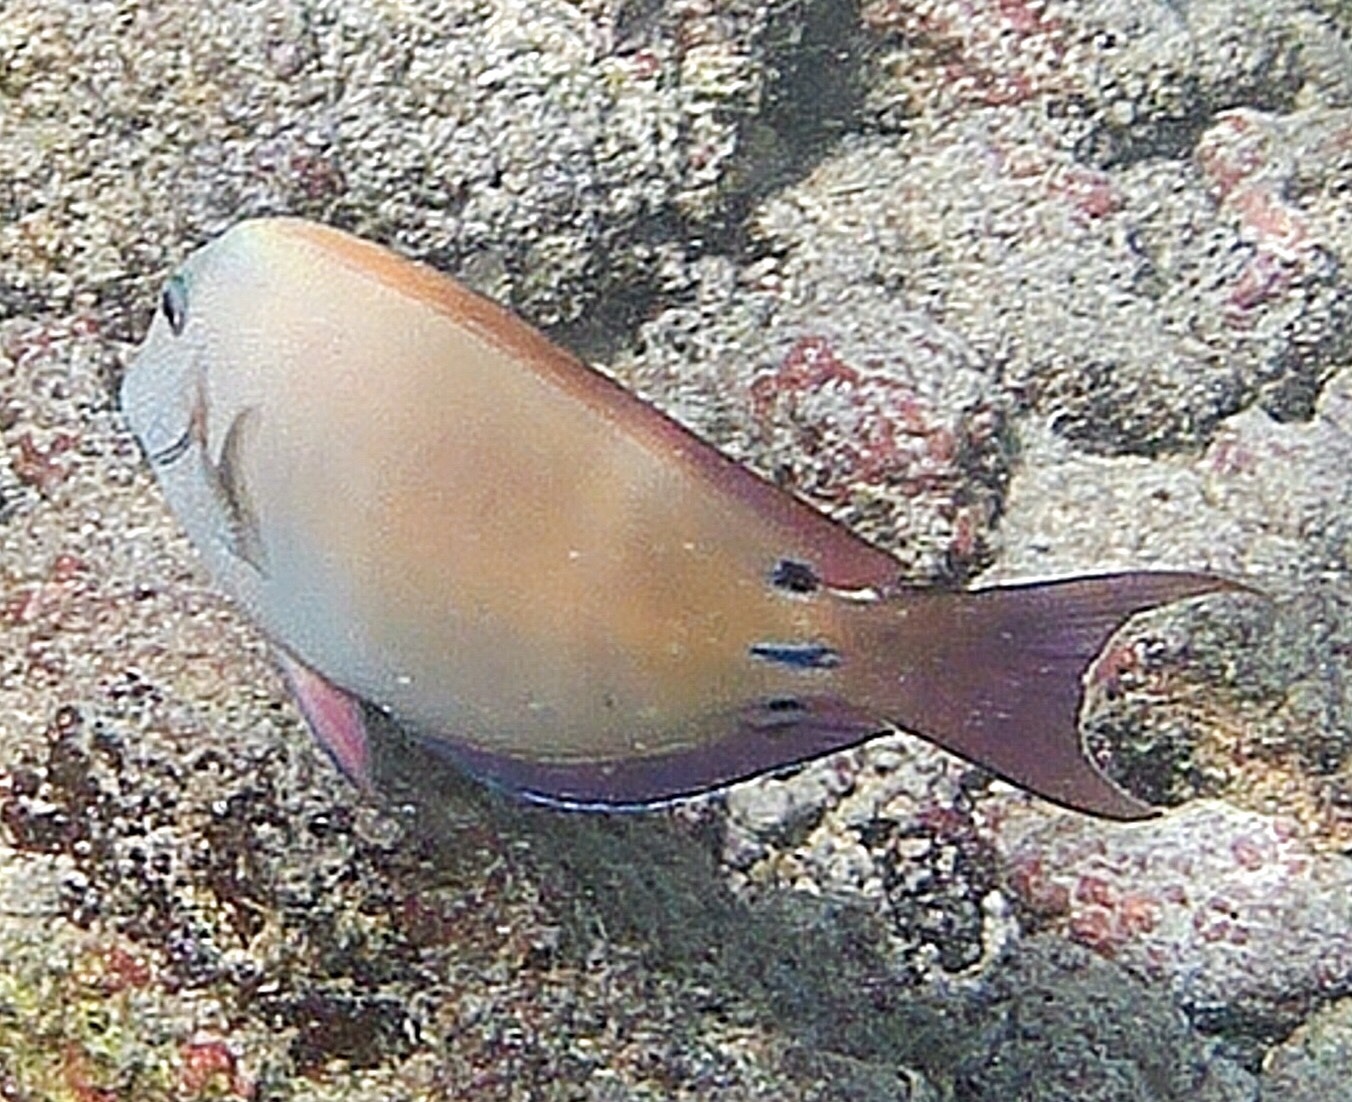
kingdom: Animalia
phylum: Chordata
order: Perciformes
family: Acanthuridae
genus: Acanthurus
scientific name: Acanthurus nigrofuscus
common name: Blackspot surgeonfish
